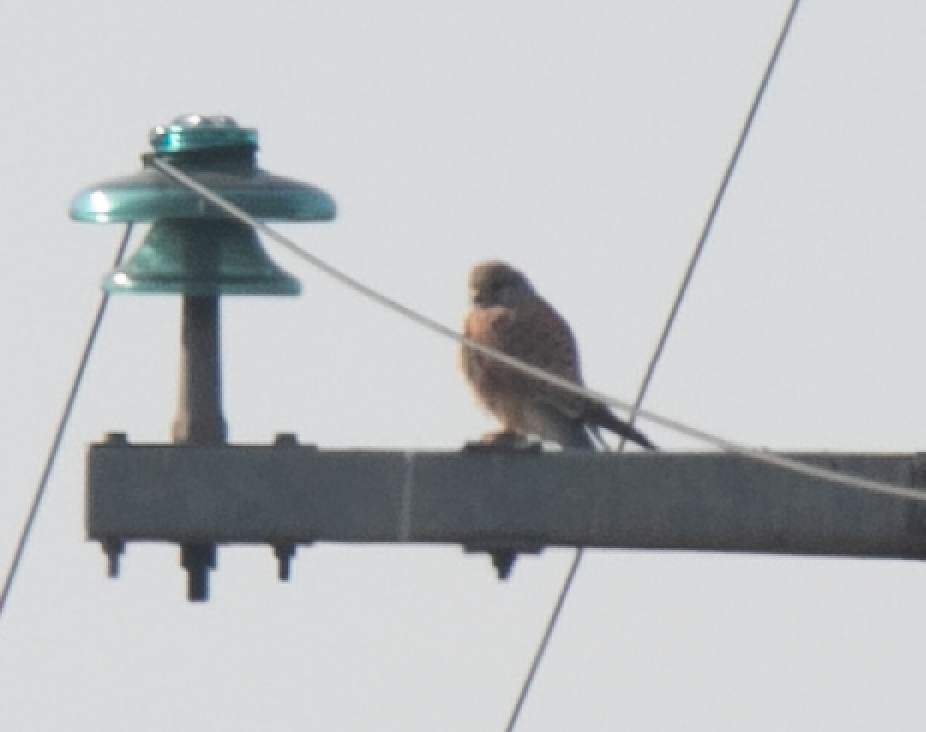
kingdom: Animalia
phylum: Chordata
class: Aves
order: Falconiformes
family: Falconidae
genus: Falco
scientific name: Falco tinnunculus
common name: Common kestrel
